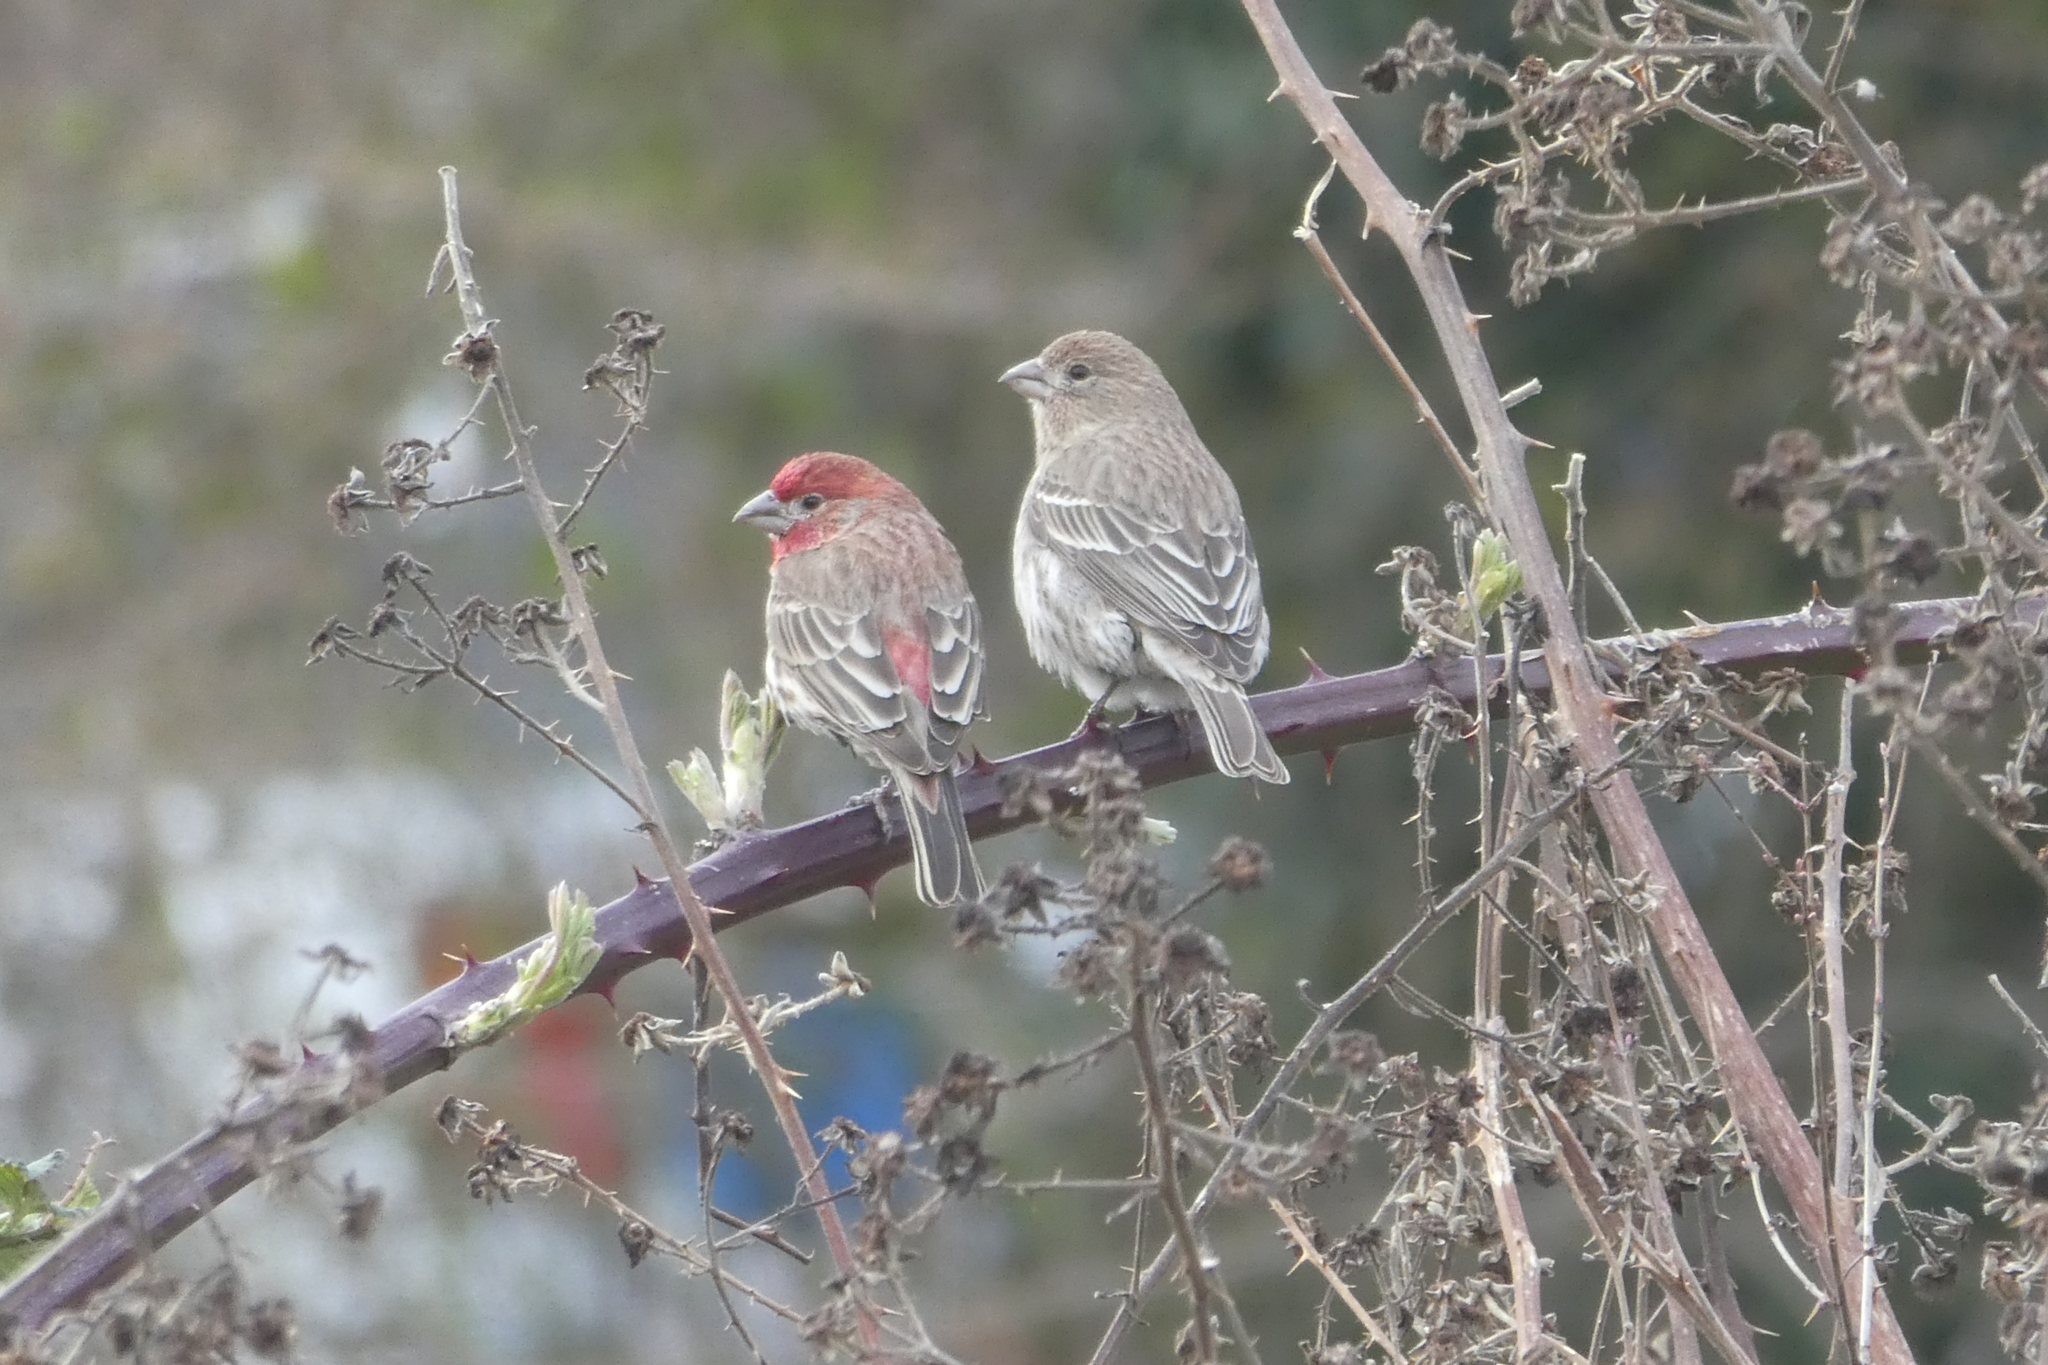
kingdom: Animalia
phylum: Chordata
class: Aves
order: Passeriformes
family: Fringillidae
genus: Haemorhous
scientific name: Haemorhous mexicanus
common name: House finch
